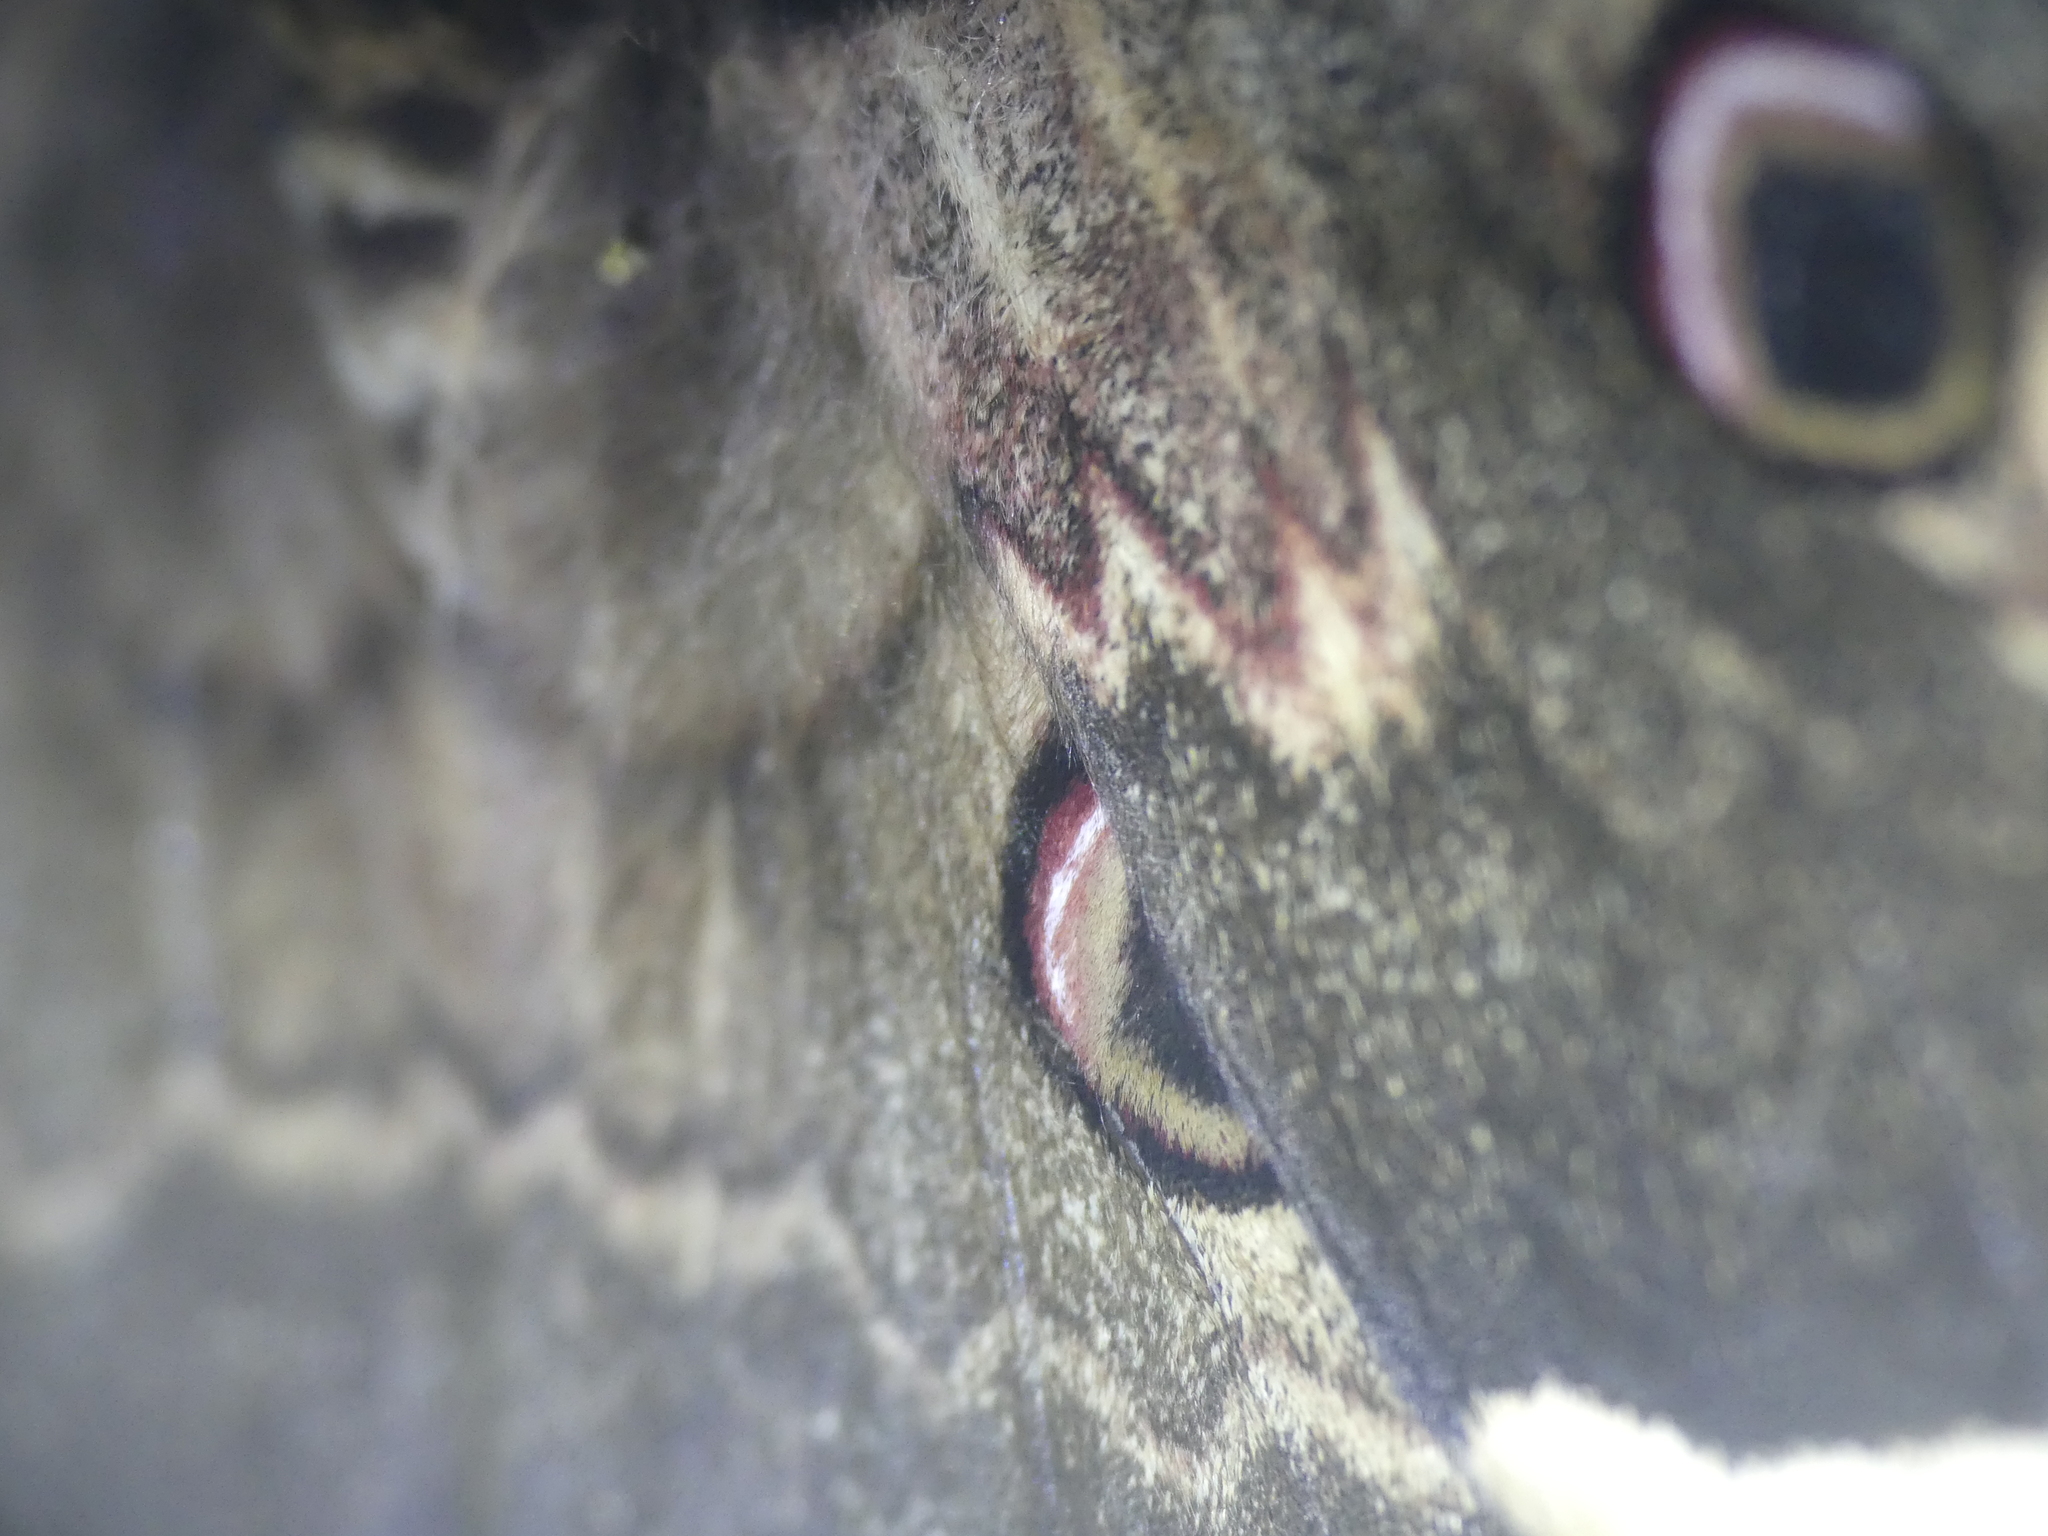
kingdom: Animalia
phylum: Arthropoda
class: Insecta
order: Lepidoptera
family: Saturniidae
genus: Saturnia
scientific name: Saturnia pyri
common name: Great peacock moth
